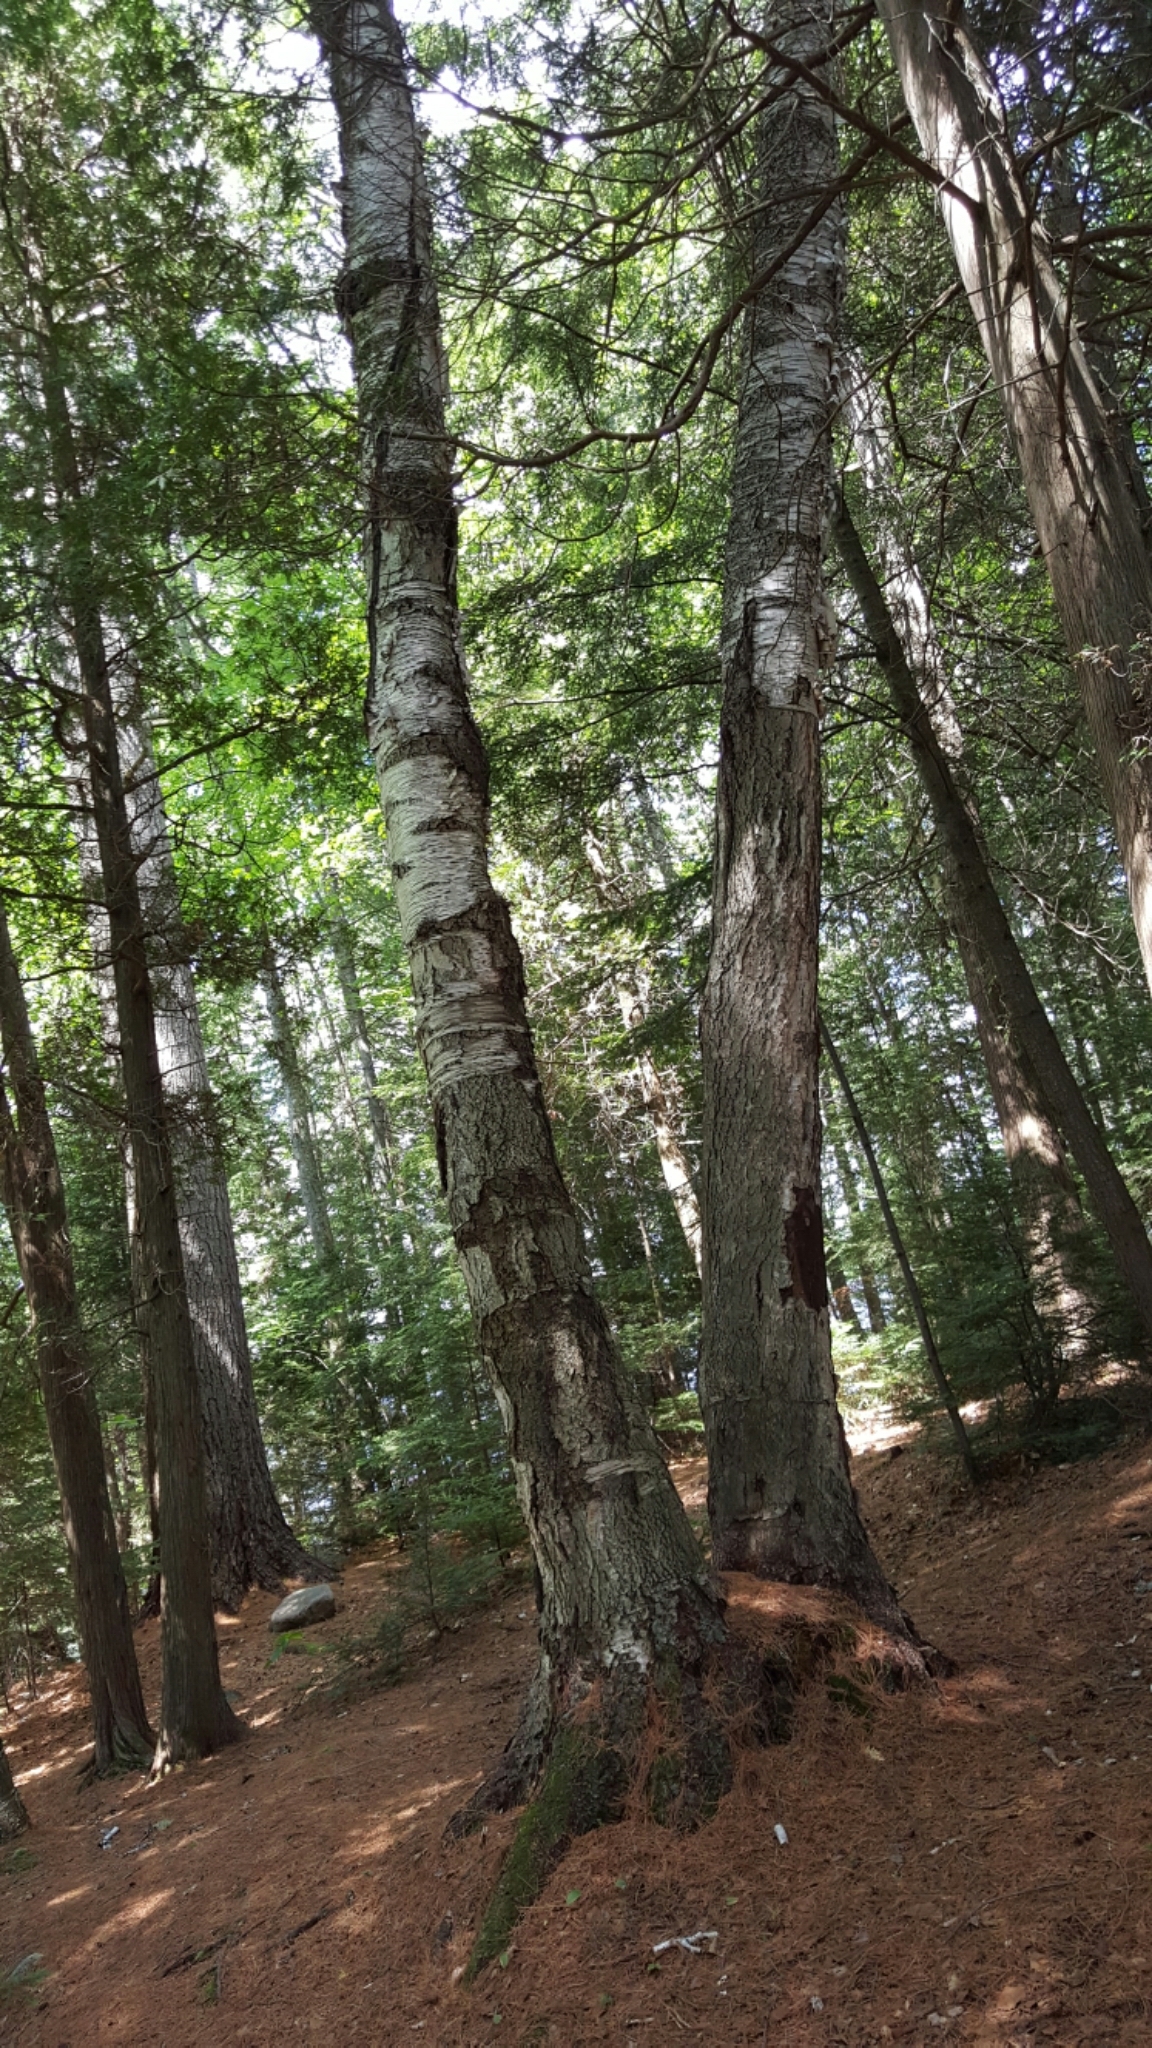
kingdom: Plantae
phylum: Tracheophyta
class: Magnoliopsida
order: Fagales
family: Betulaceae
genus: Betula
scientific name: Betula papyrifera
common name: Paper birch
